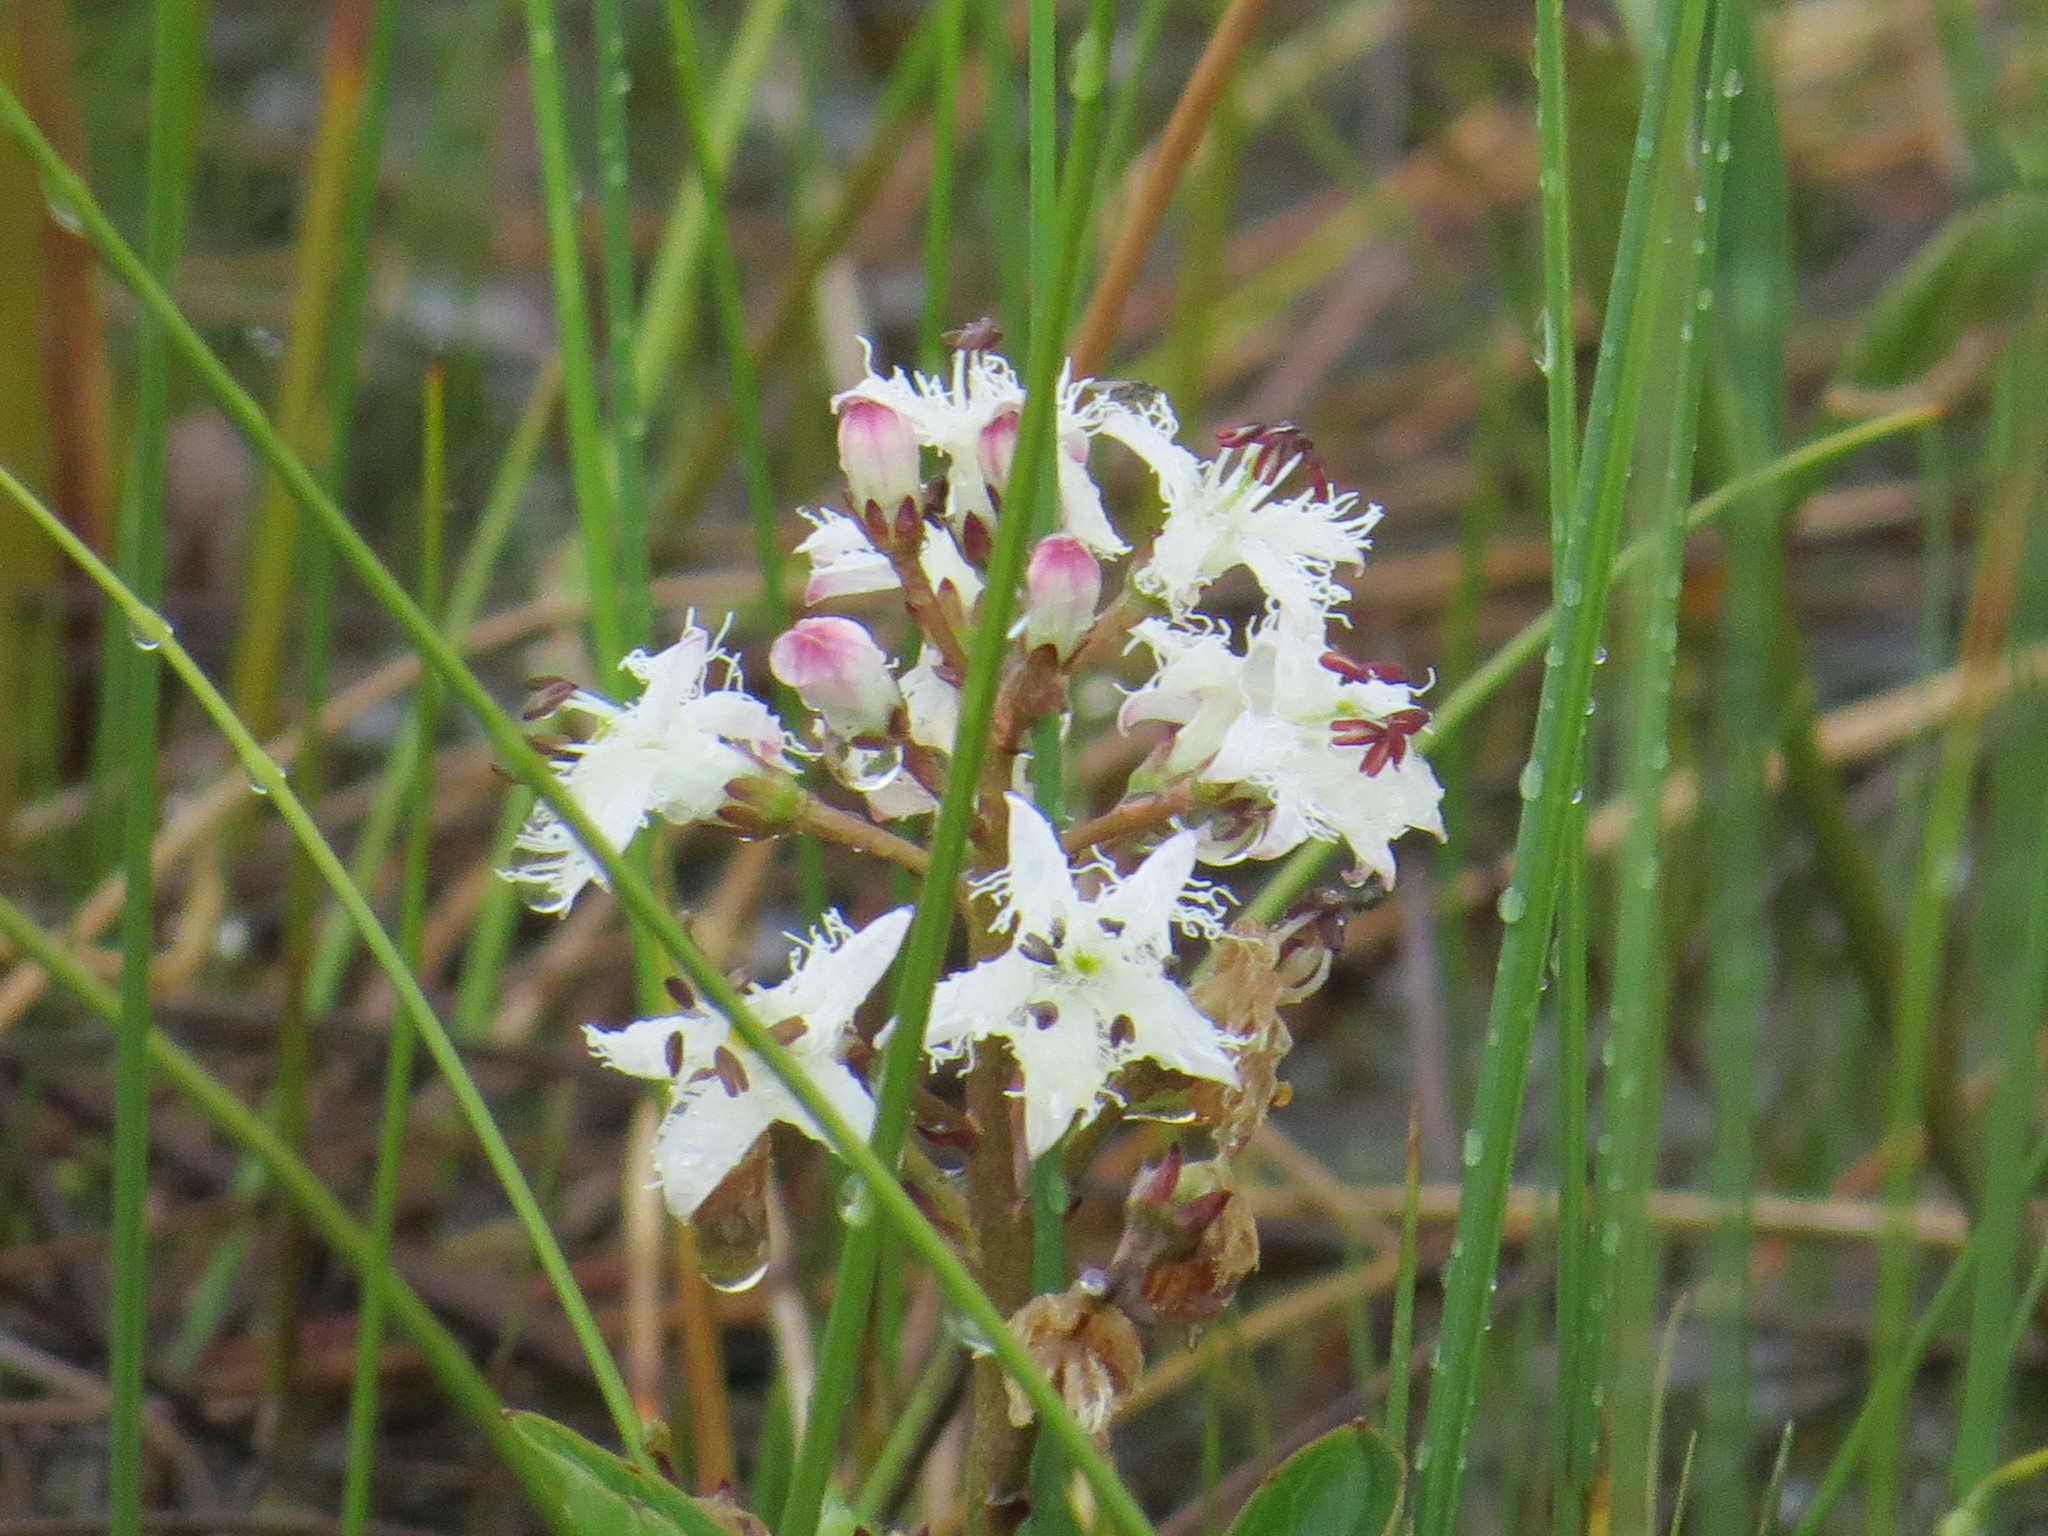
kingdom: Plantae
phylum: Tracheophyta
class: Magnoliopsida
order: Asterales
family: Menyanthaceae
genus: Menyanthes
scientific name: Menyanthes trifoliata
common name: Bogbean
